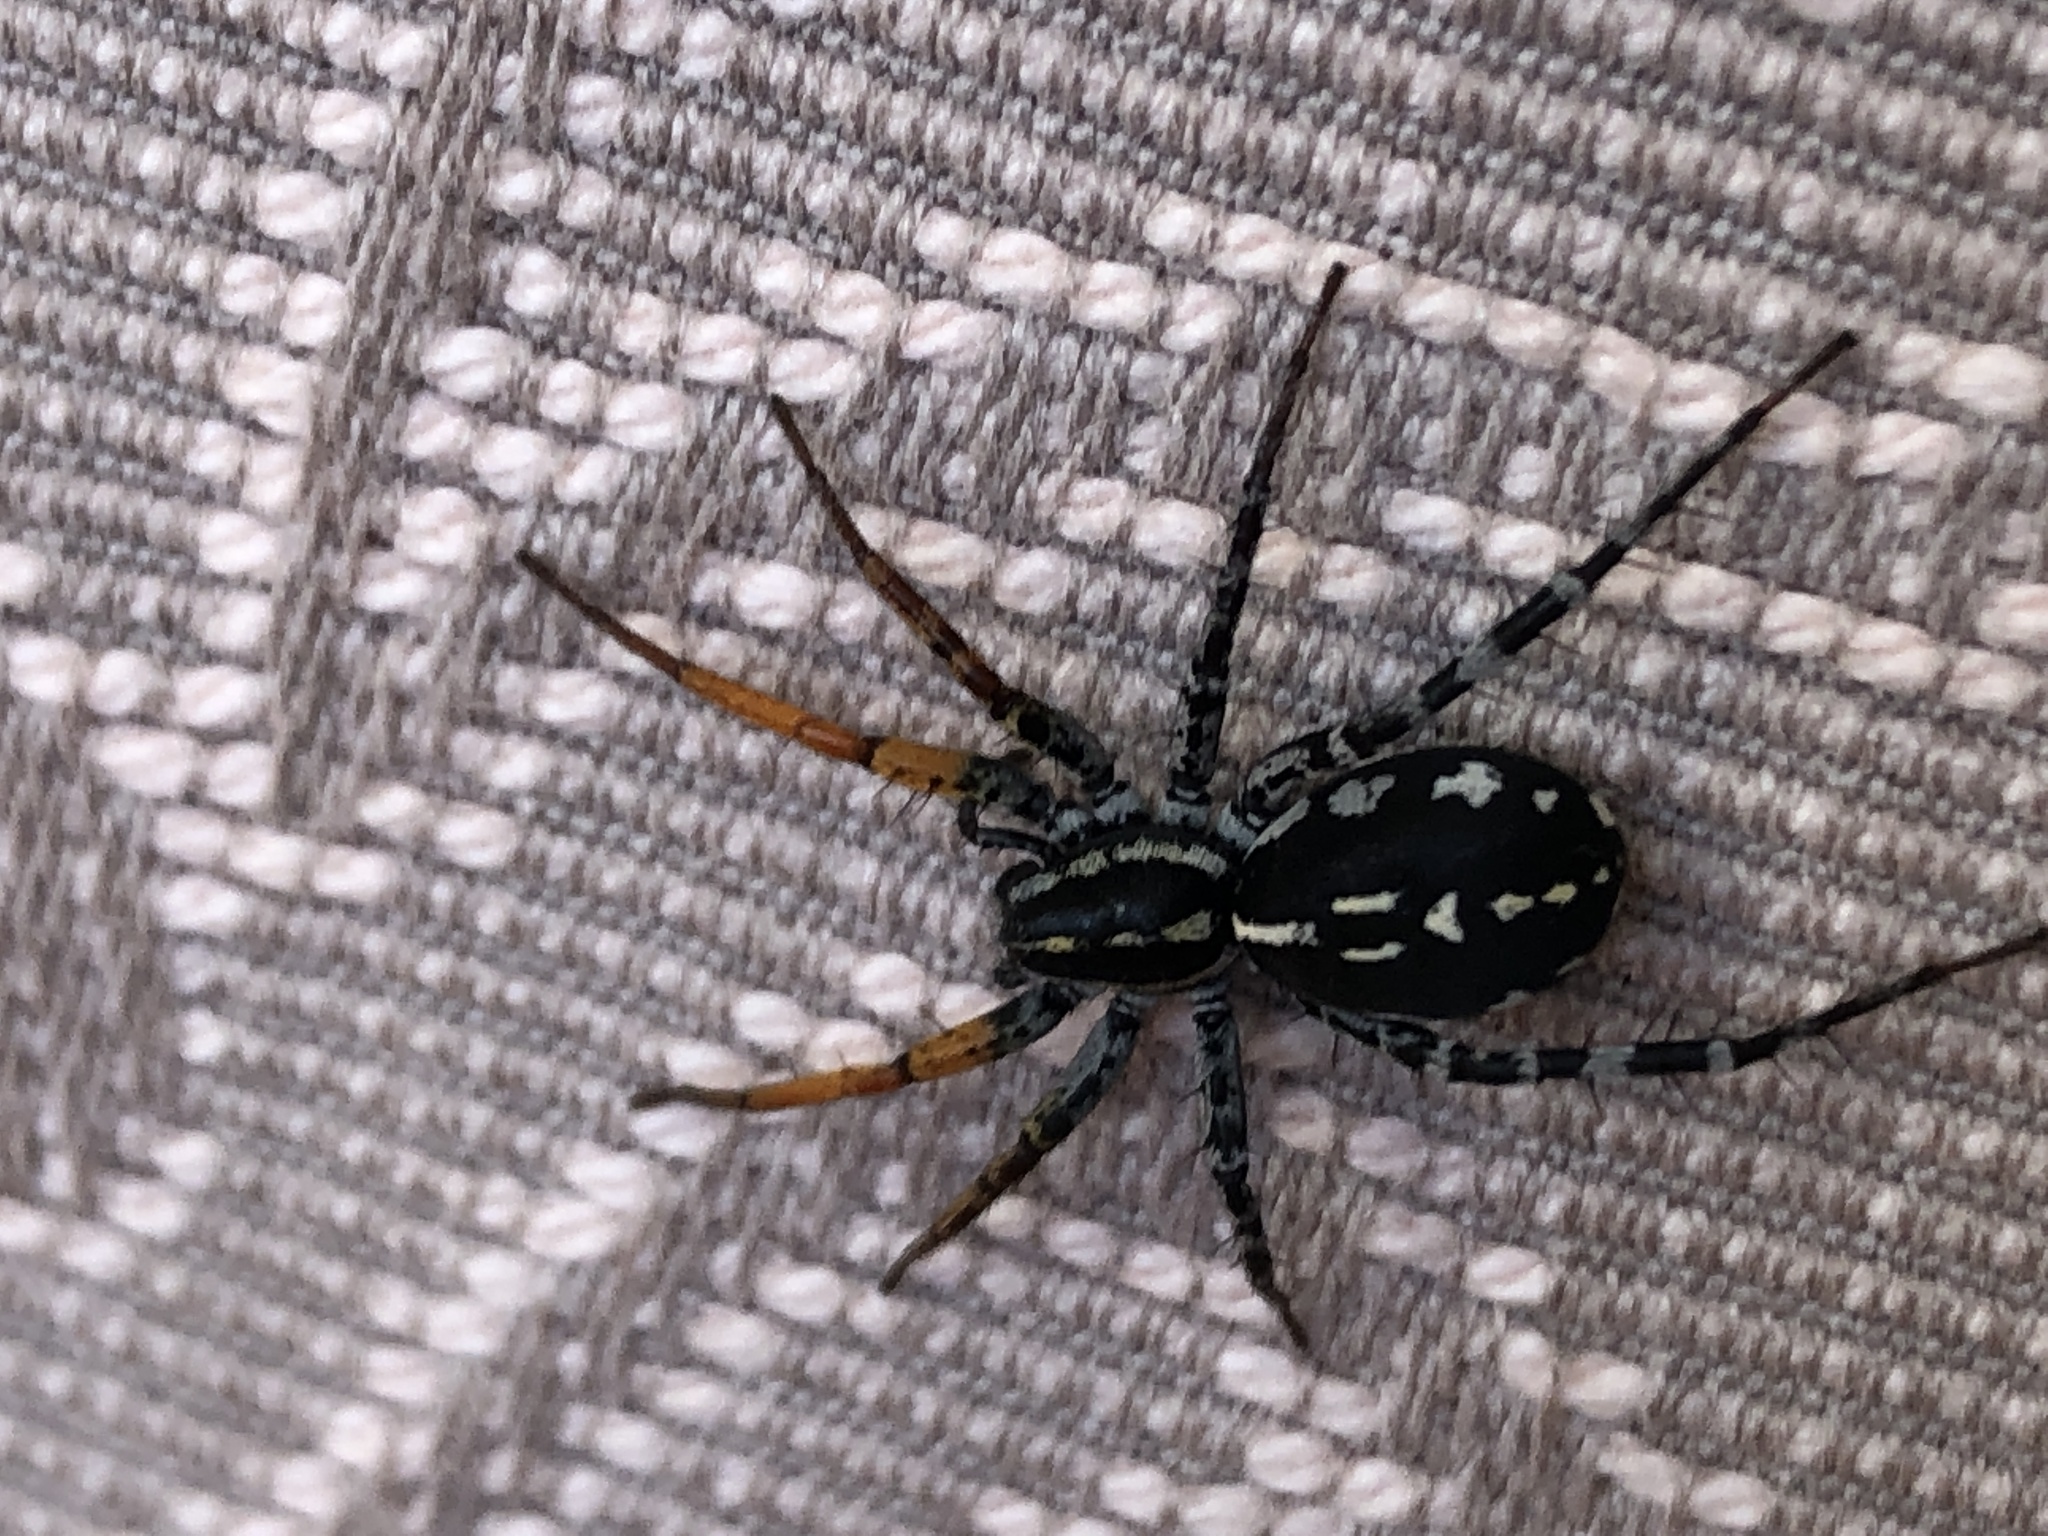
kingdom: Animalia
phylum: Arthropoda
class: Arachnida
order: Araneae
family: Corinnidae
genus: Nyssus
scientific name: Nyssus coloripes
